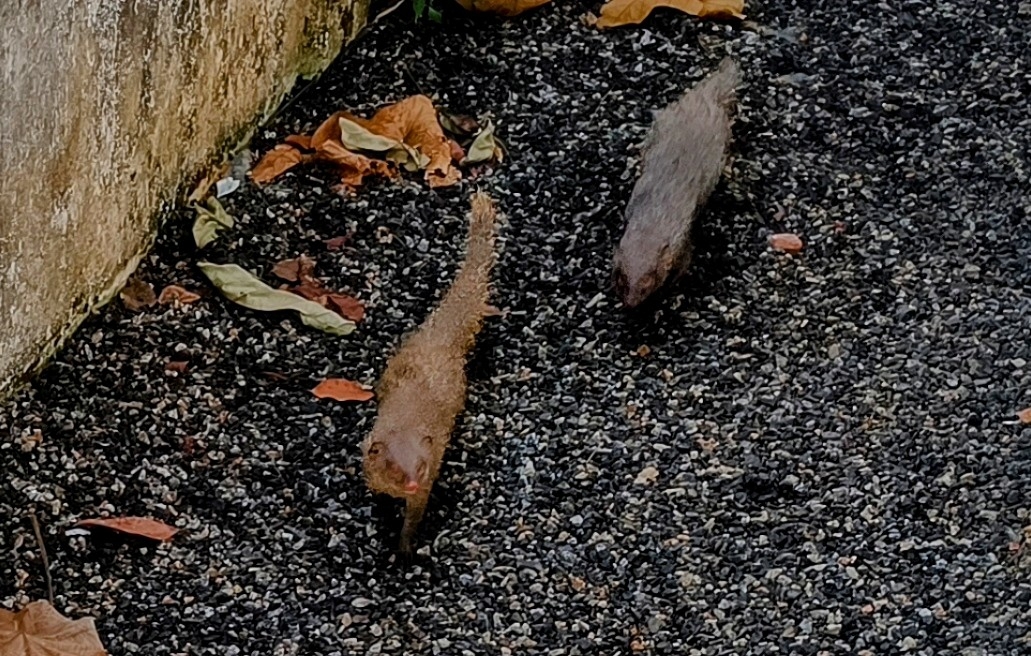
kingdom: Animalia
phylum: Chordata
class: Mammalia
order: Carnivora
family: Herpestidae
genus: Herpestes
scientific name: Herpestes edwardsi
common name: Indian gray mongoose
